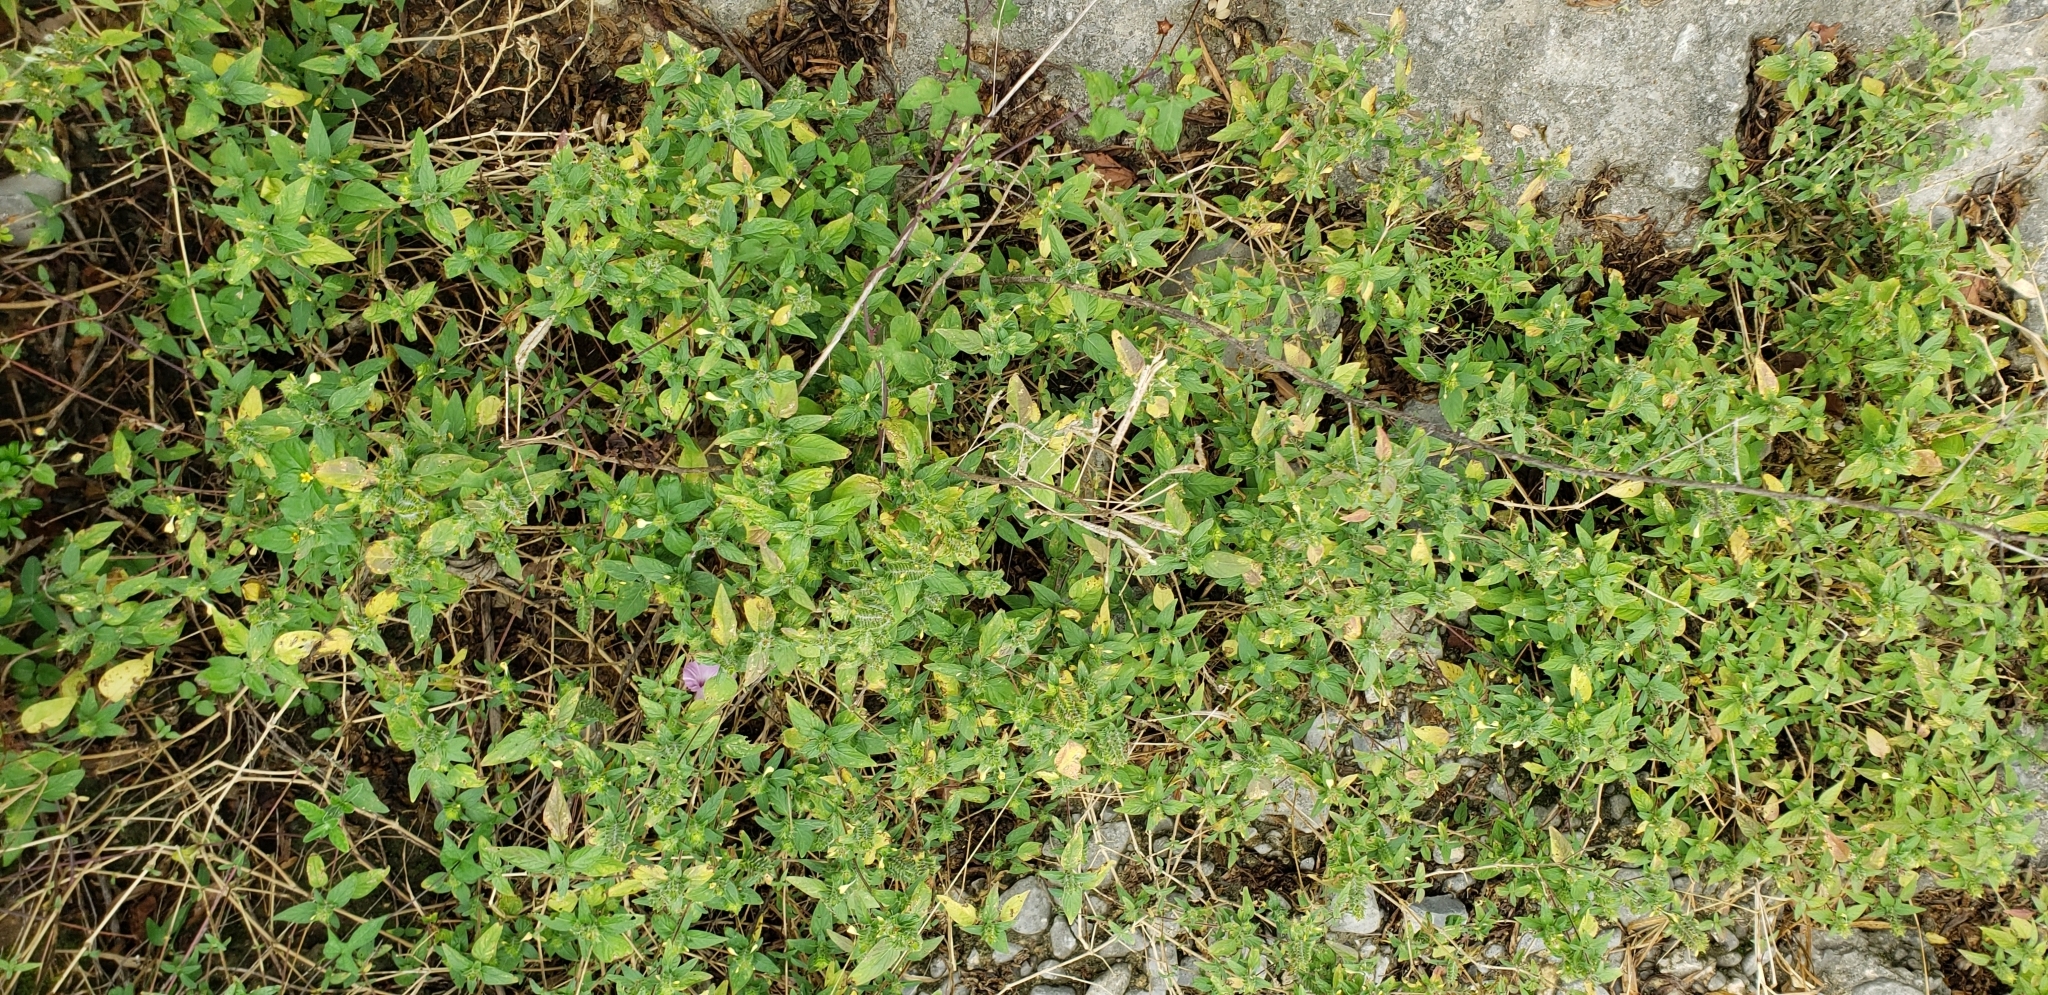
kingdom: Plantae
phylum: Tracheophyta
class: Magnoliopsida
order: Lamiales
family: Acanthaceae
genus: Tetramerium
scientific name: Tetramerium nervosum
